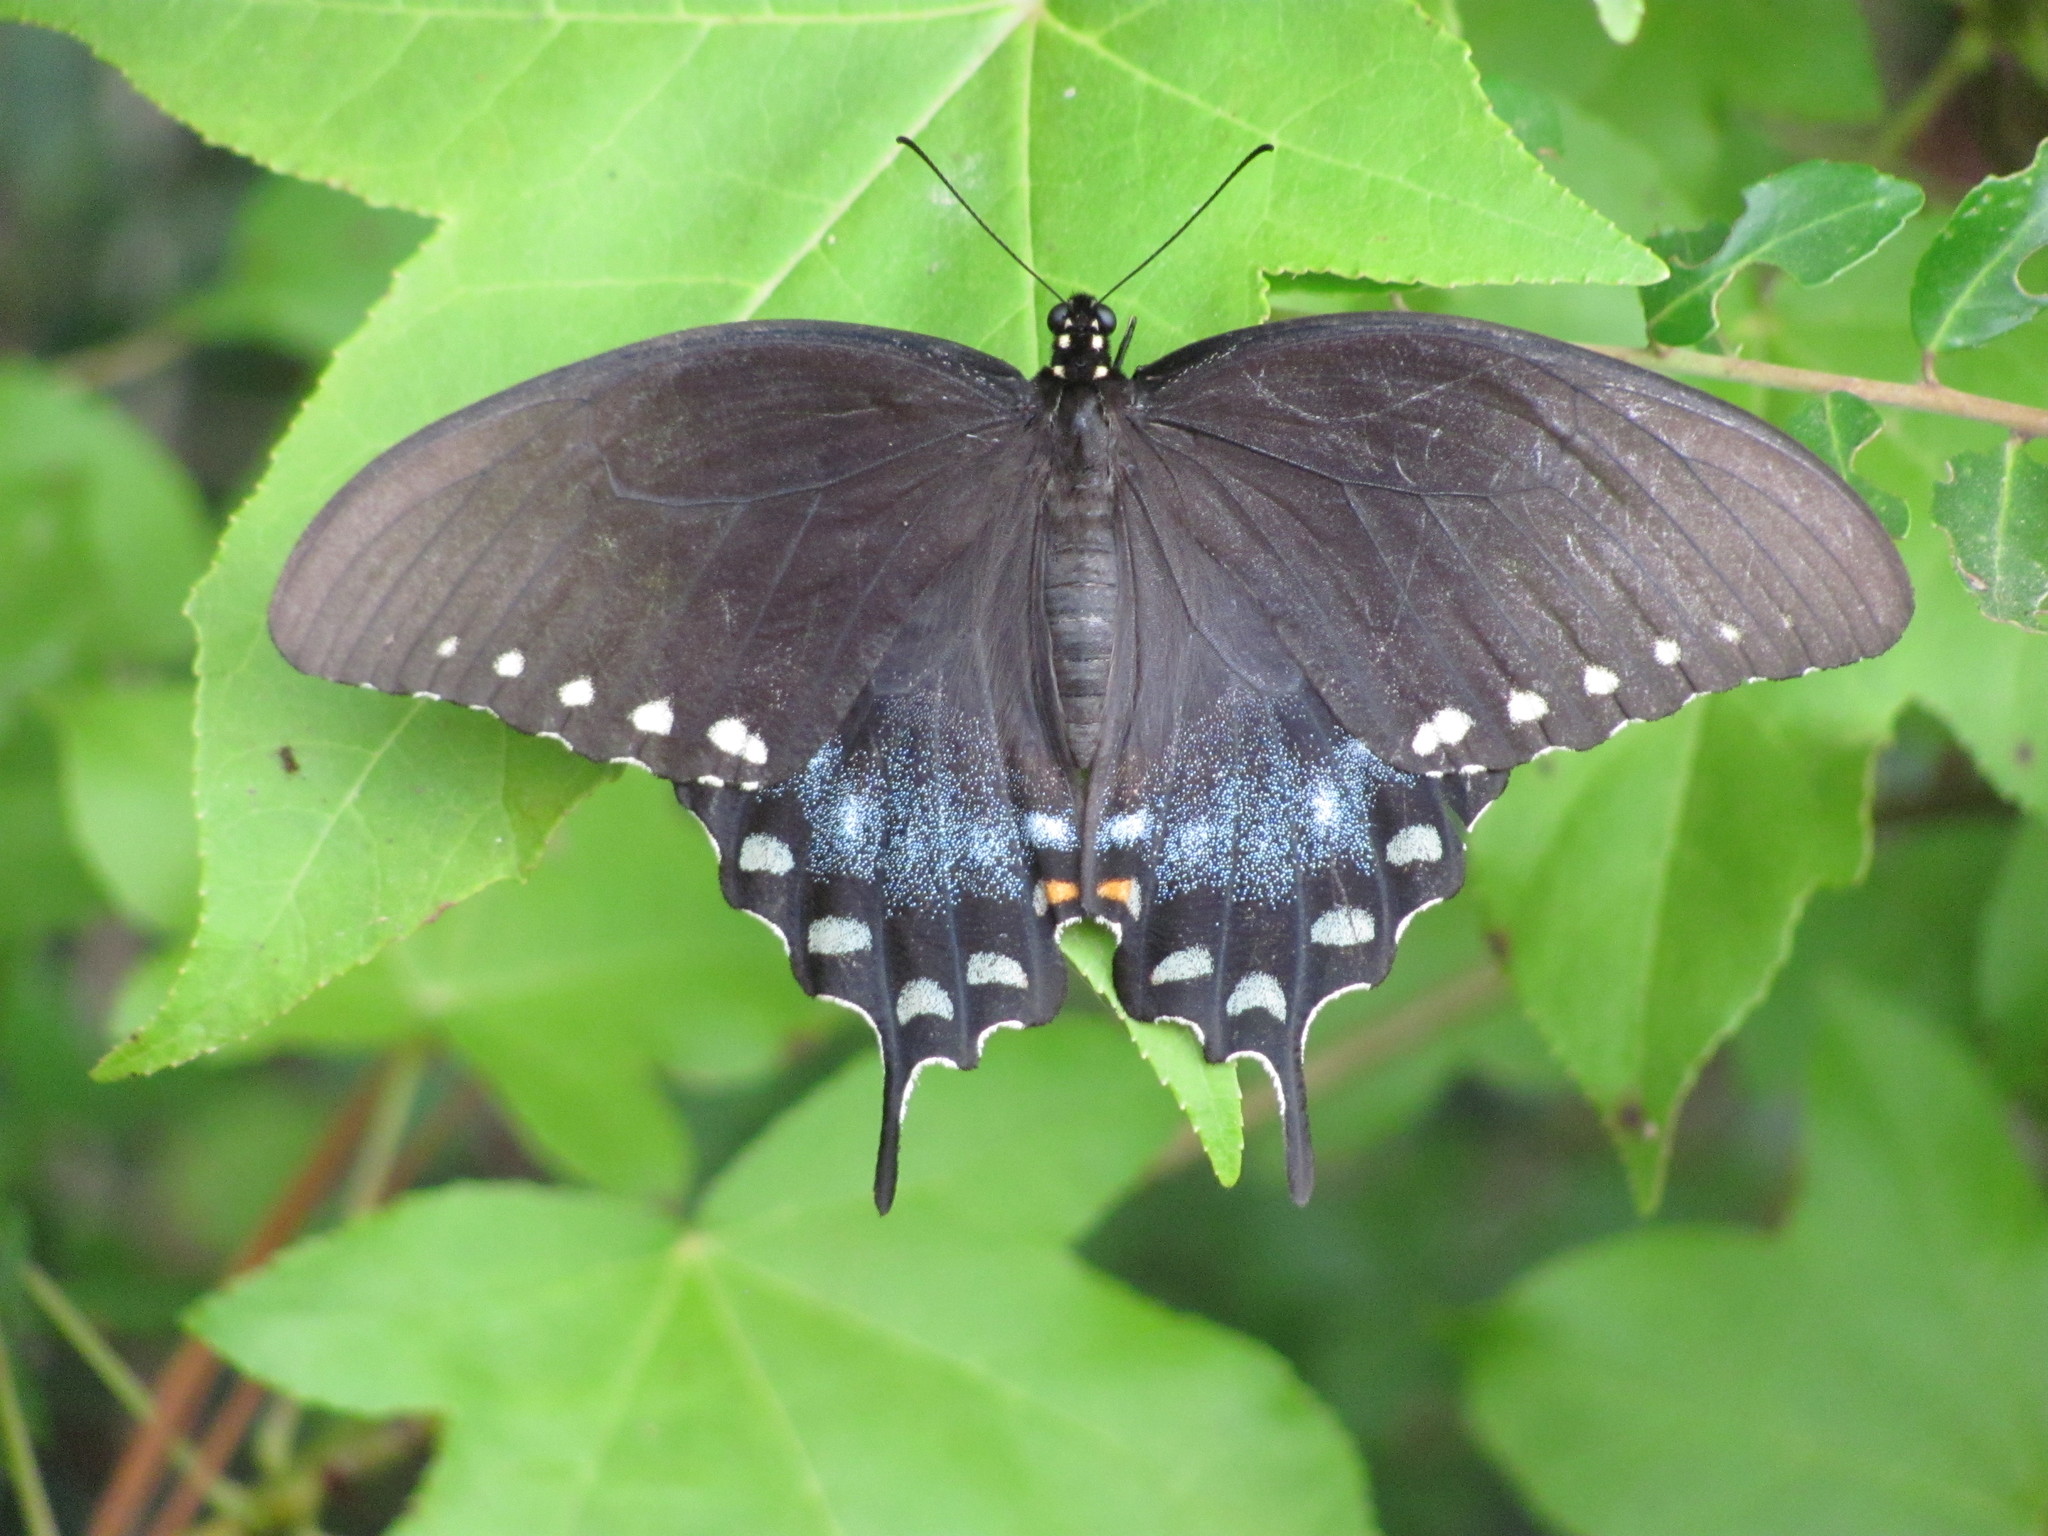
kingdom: Animalia
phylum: Arthropoda
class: Insecta
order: Lepidoptera
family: Papilionidae
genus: Papilio
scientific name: Papilio troilus
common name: Spicebush swallowtail
